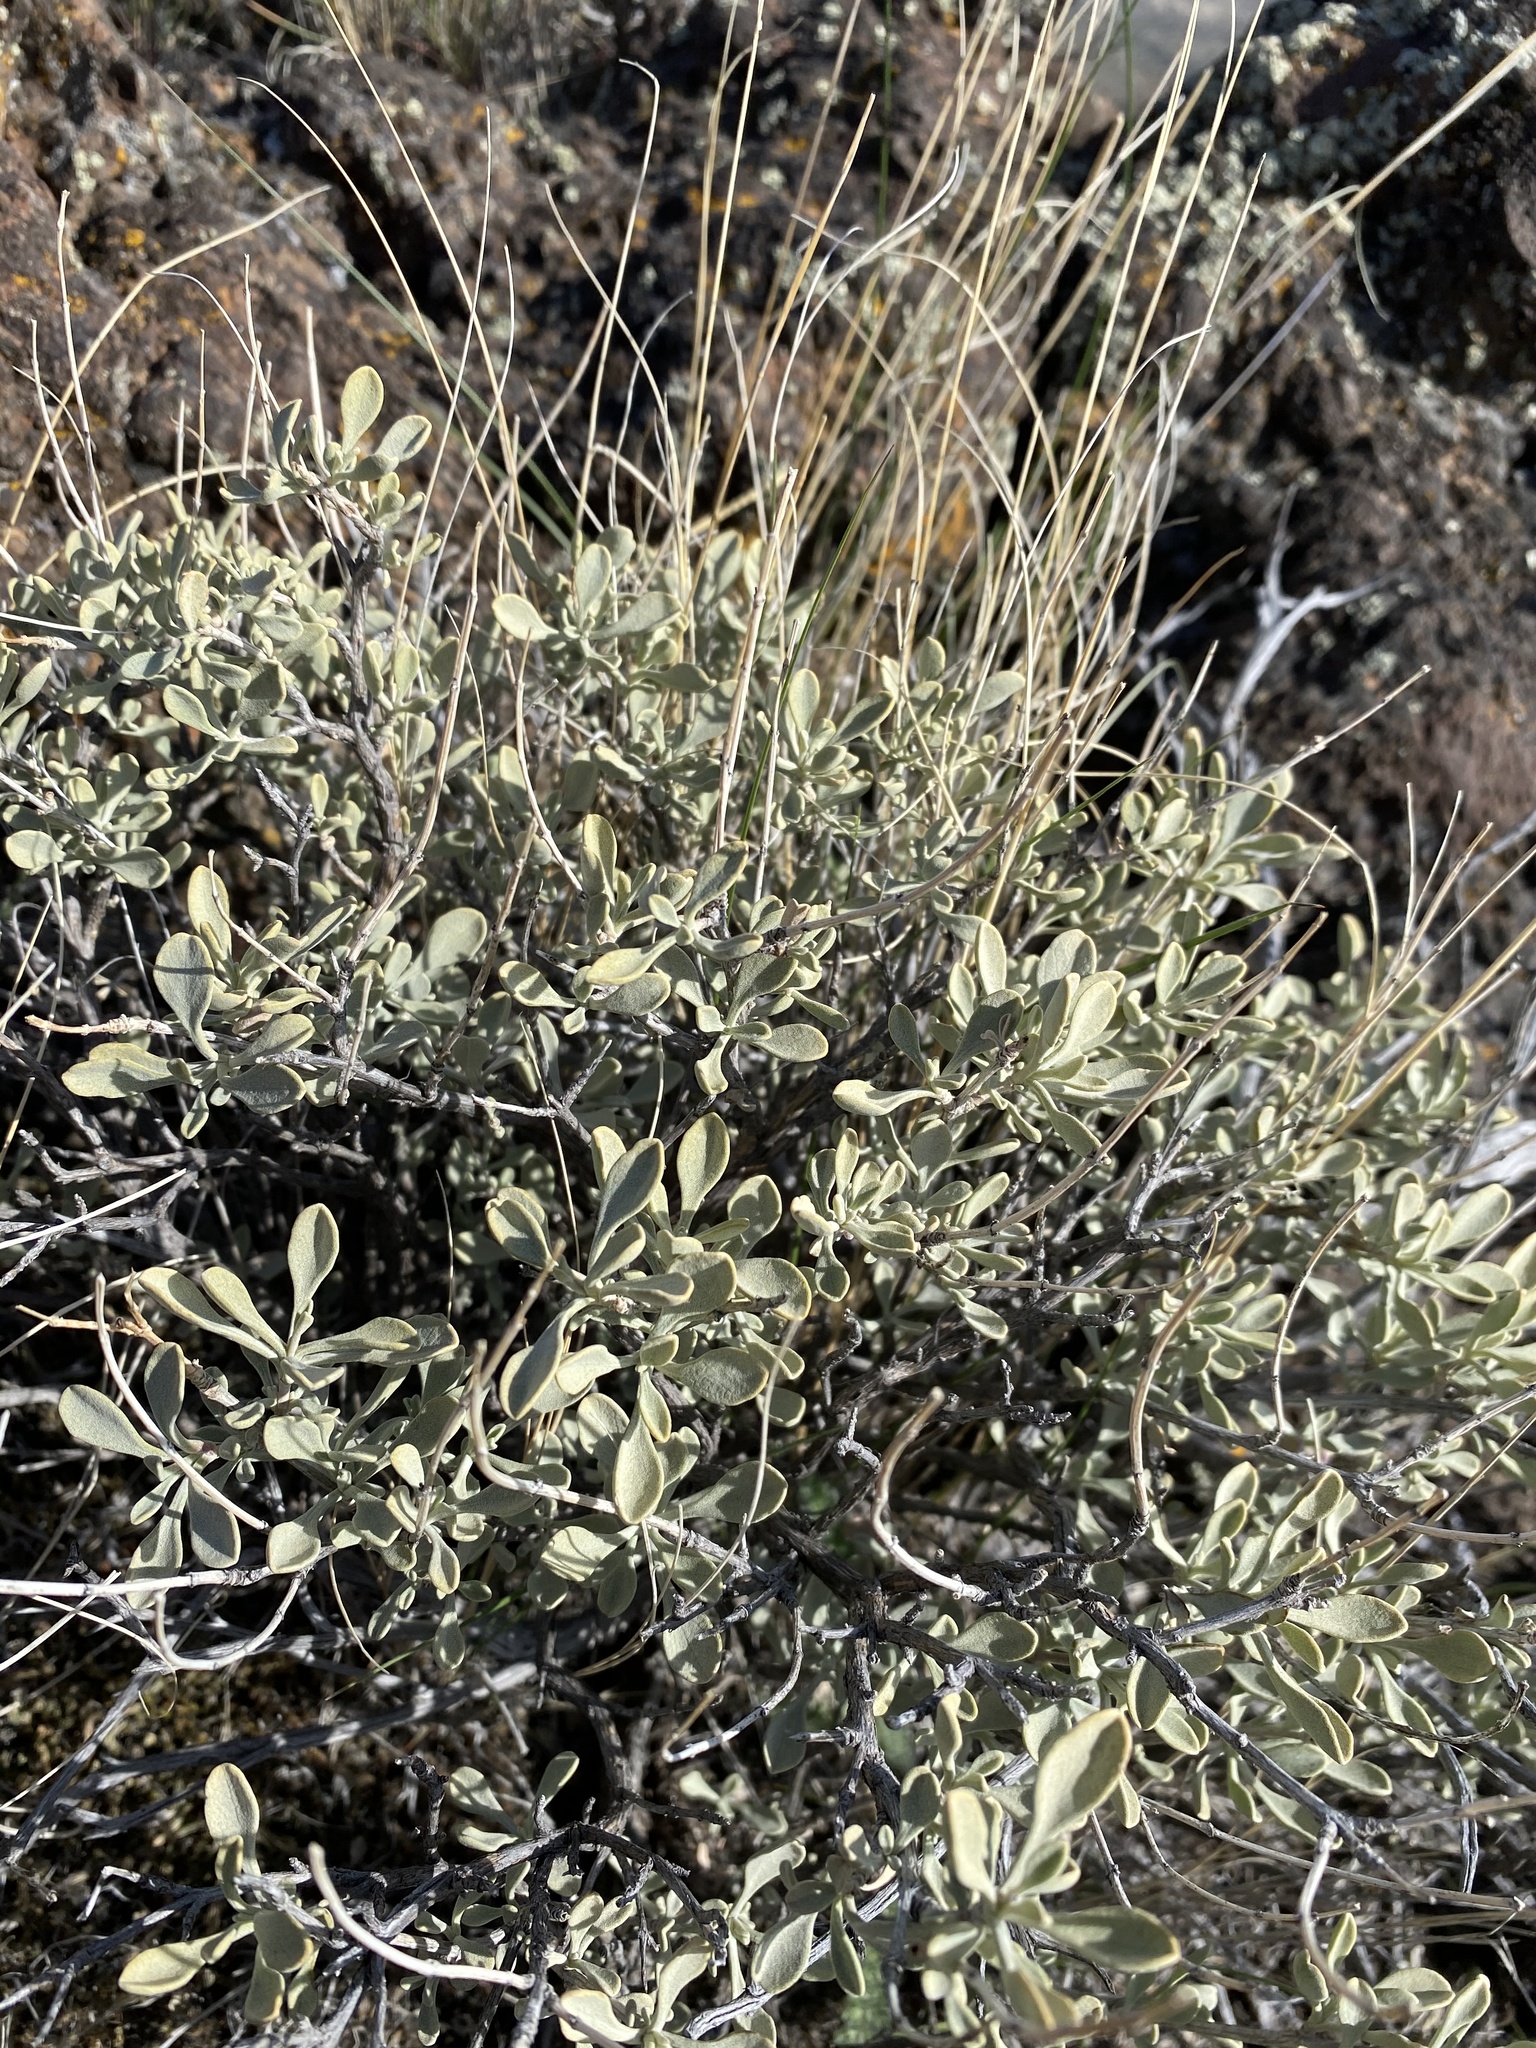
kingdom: Plantae
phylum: Tracheophyta
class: Magnoliopsida
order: Lamiales
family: Lamiaceae
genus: Salvia
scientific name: Salvia dorrii
